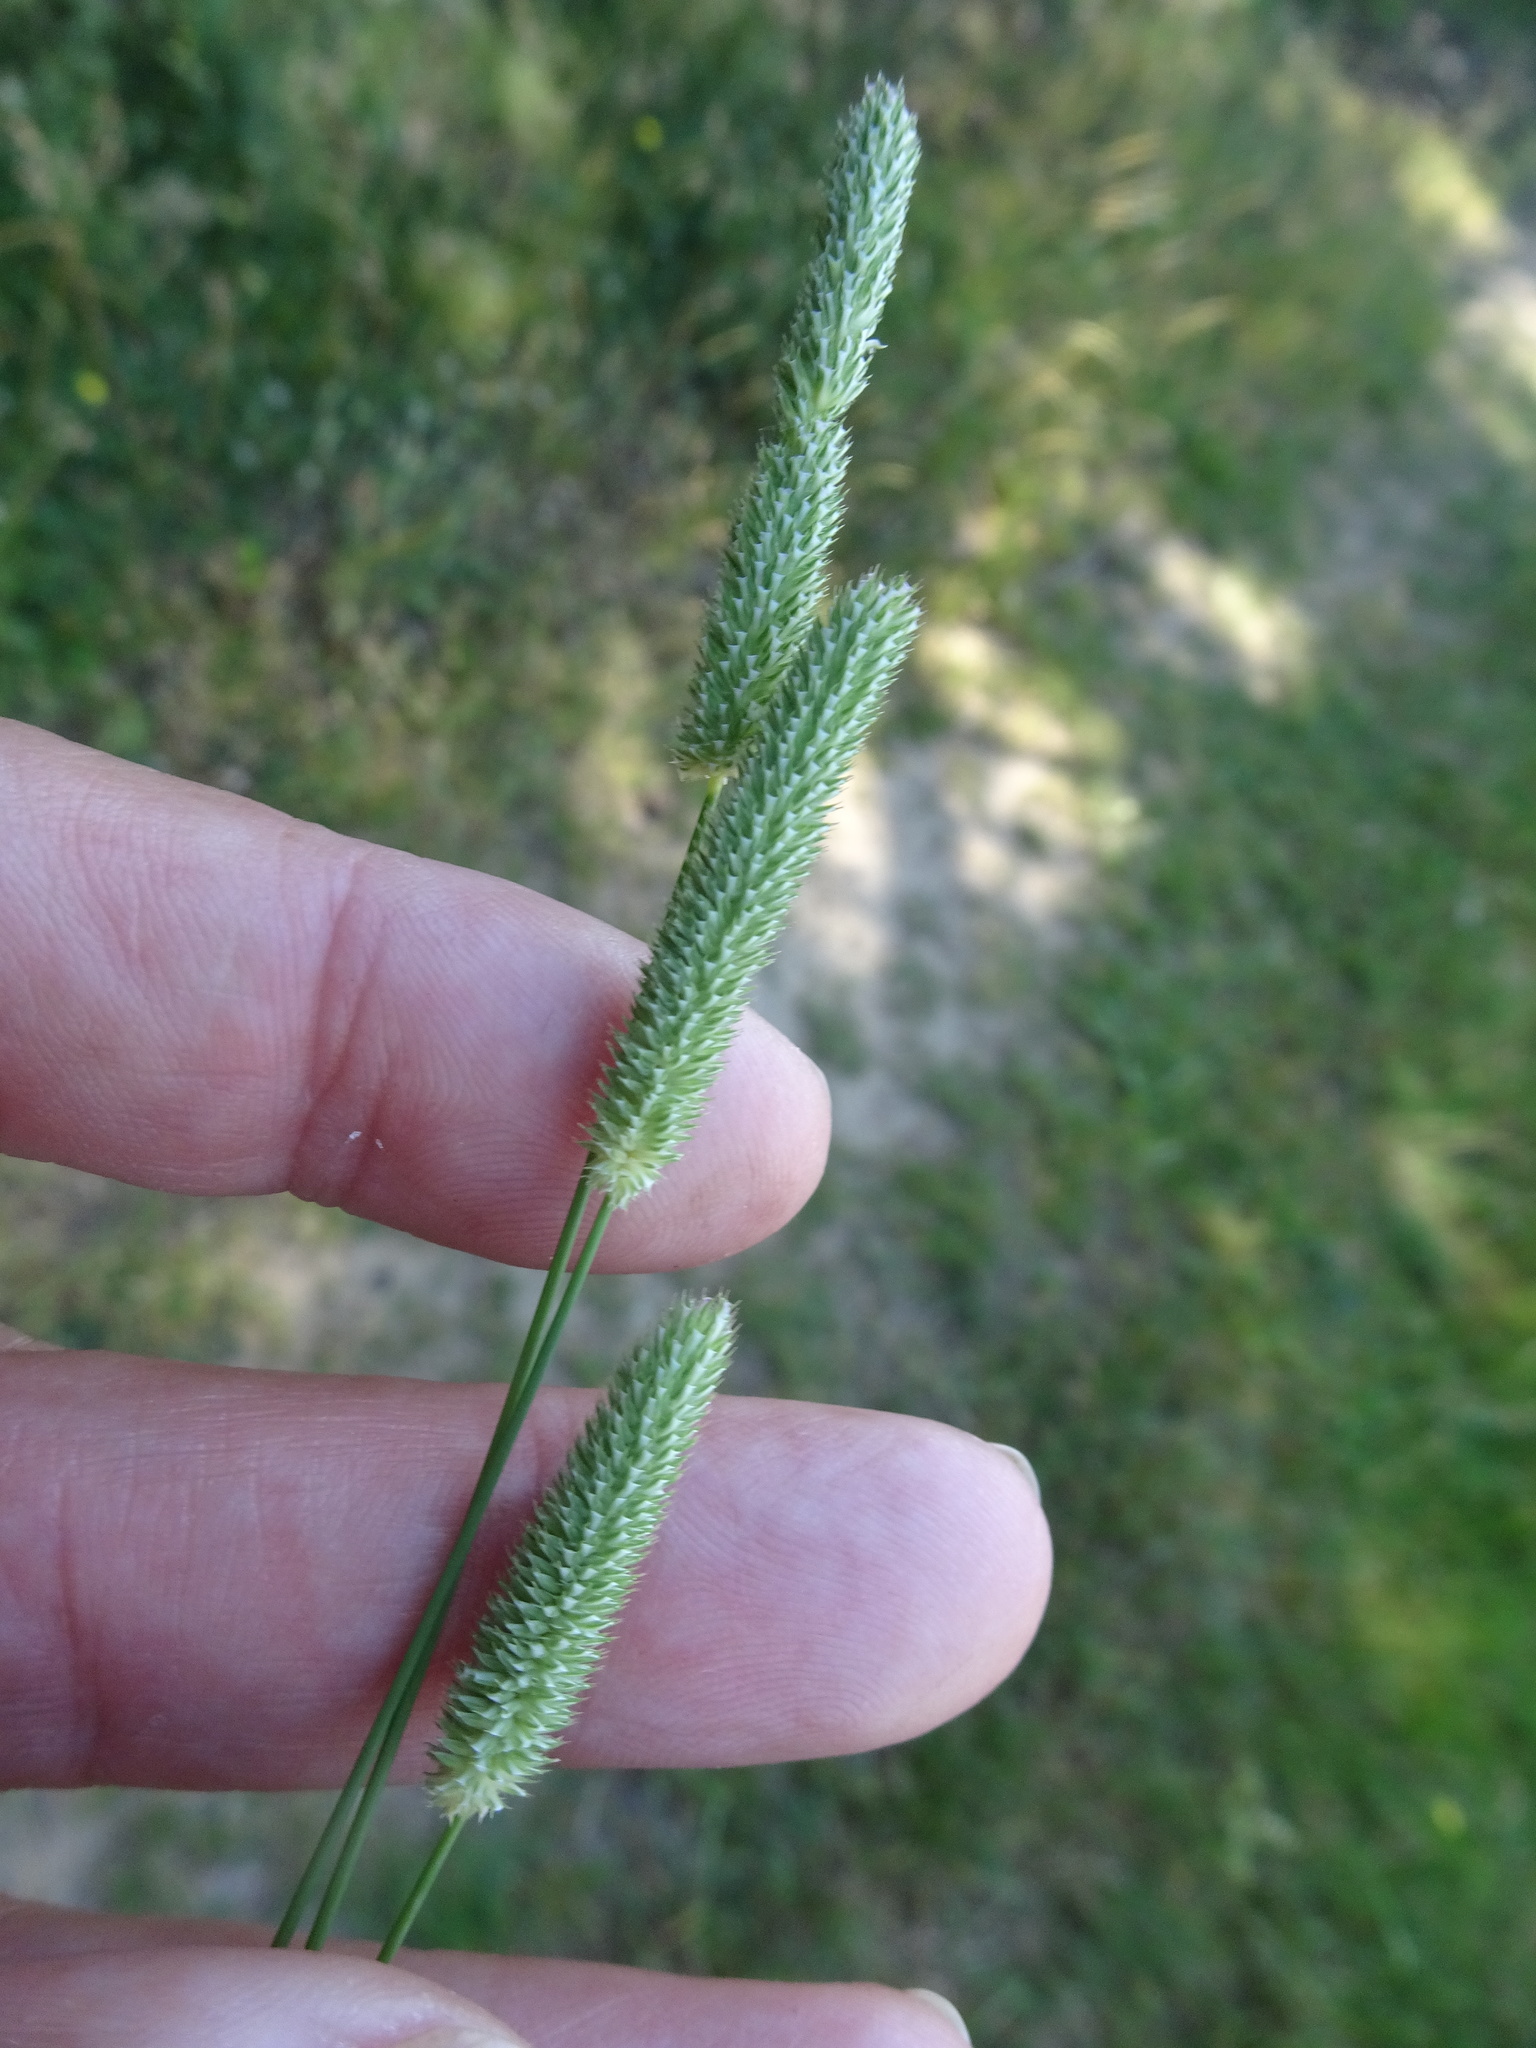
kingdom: Plantae
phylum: Tracheophyta
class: Liliopsida
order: Poales
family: Poaceae
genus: Phleum
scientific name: Phleum bertolonii
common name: Smaller cat's-tail
